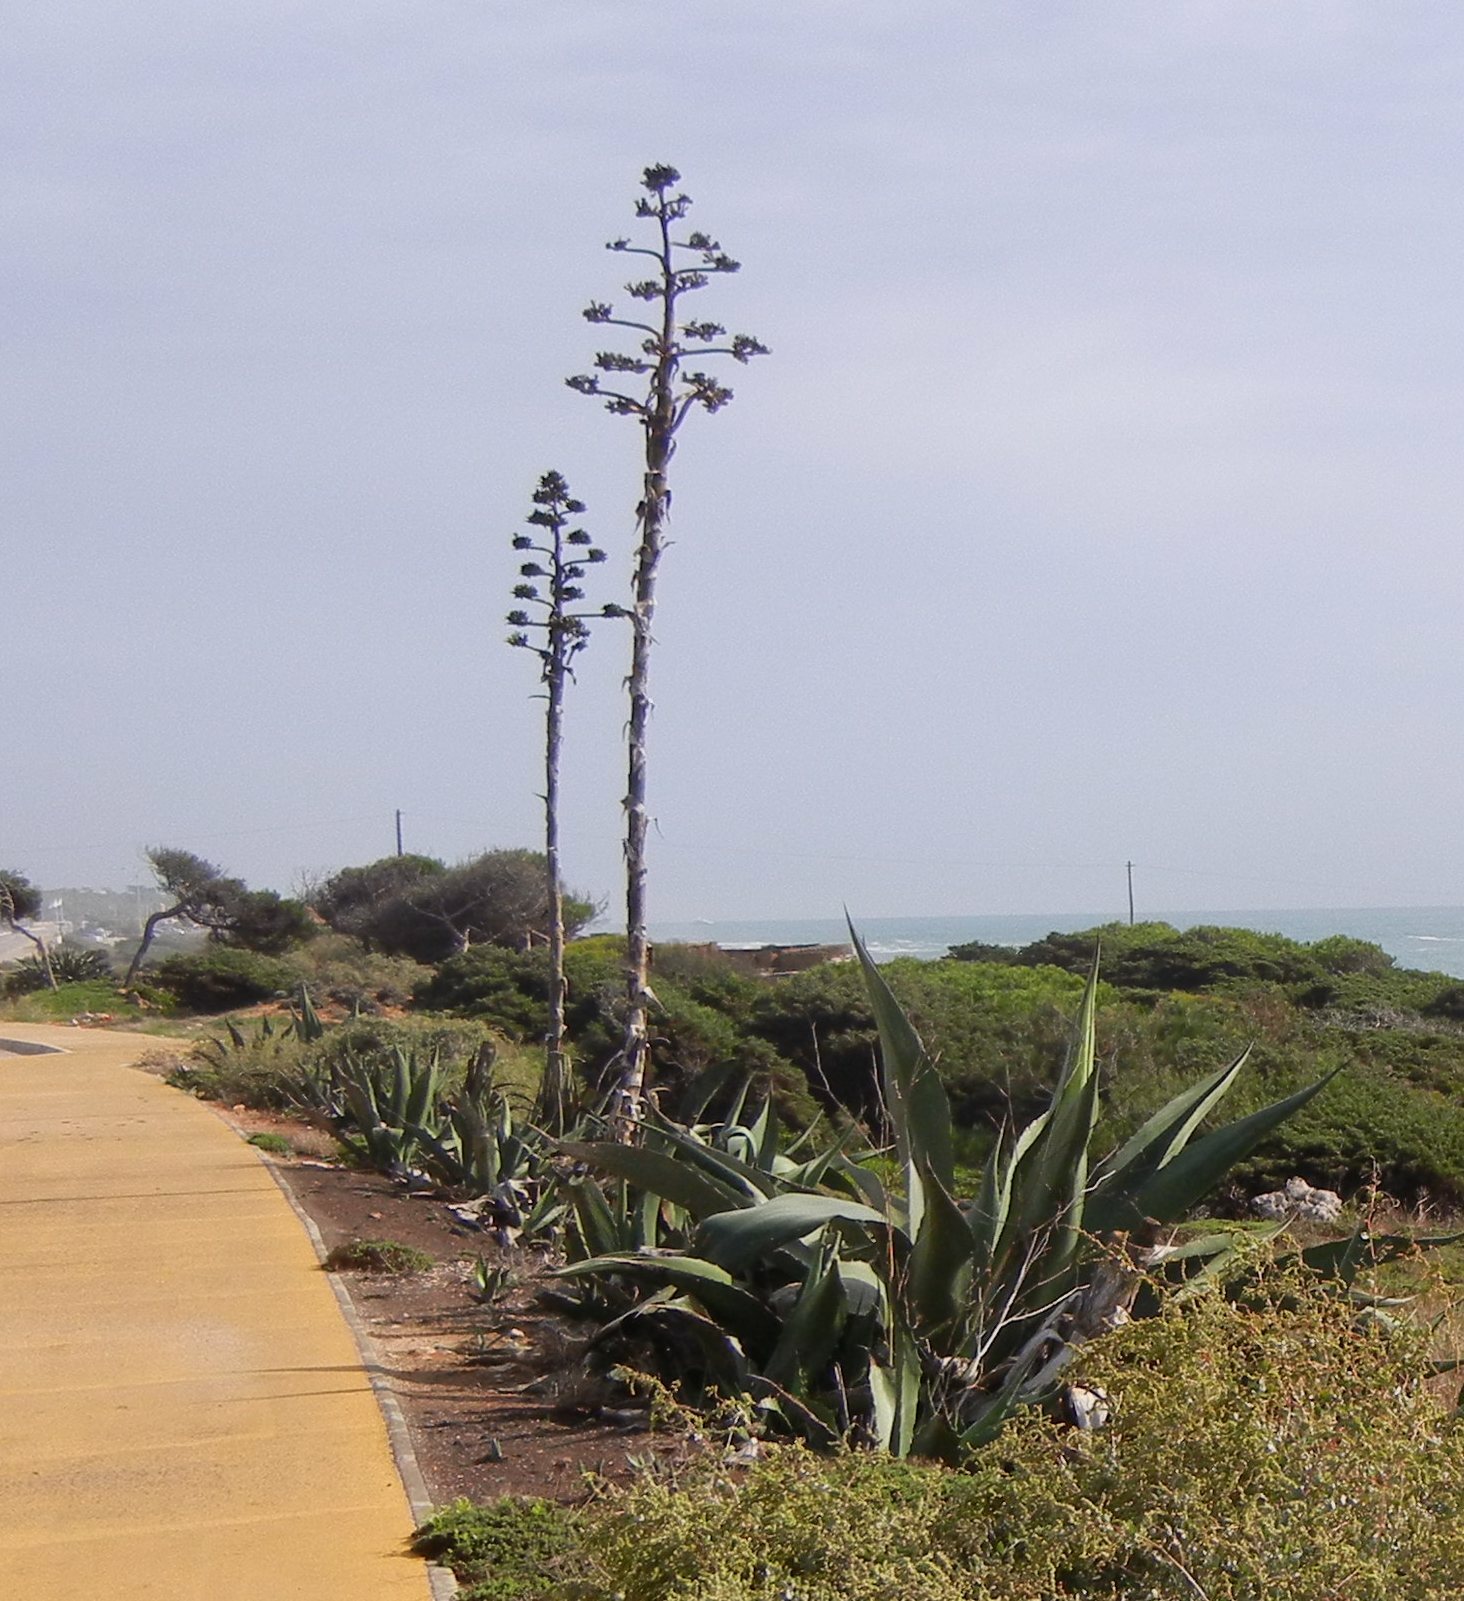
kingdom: Plantae
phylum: Tracheophyta
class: Liliopsida
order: Asparagales
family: Asparagaceae
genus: Agave
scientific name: Agave americana
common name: Centuryplant
